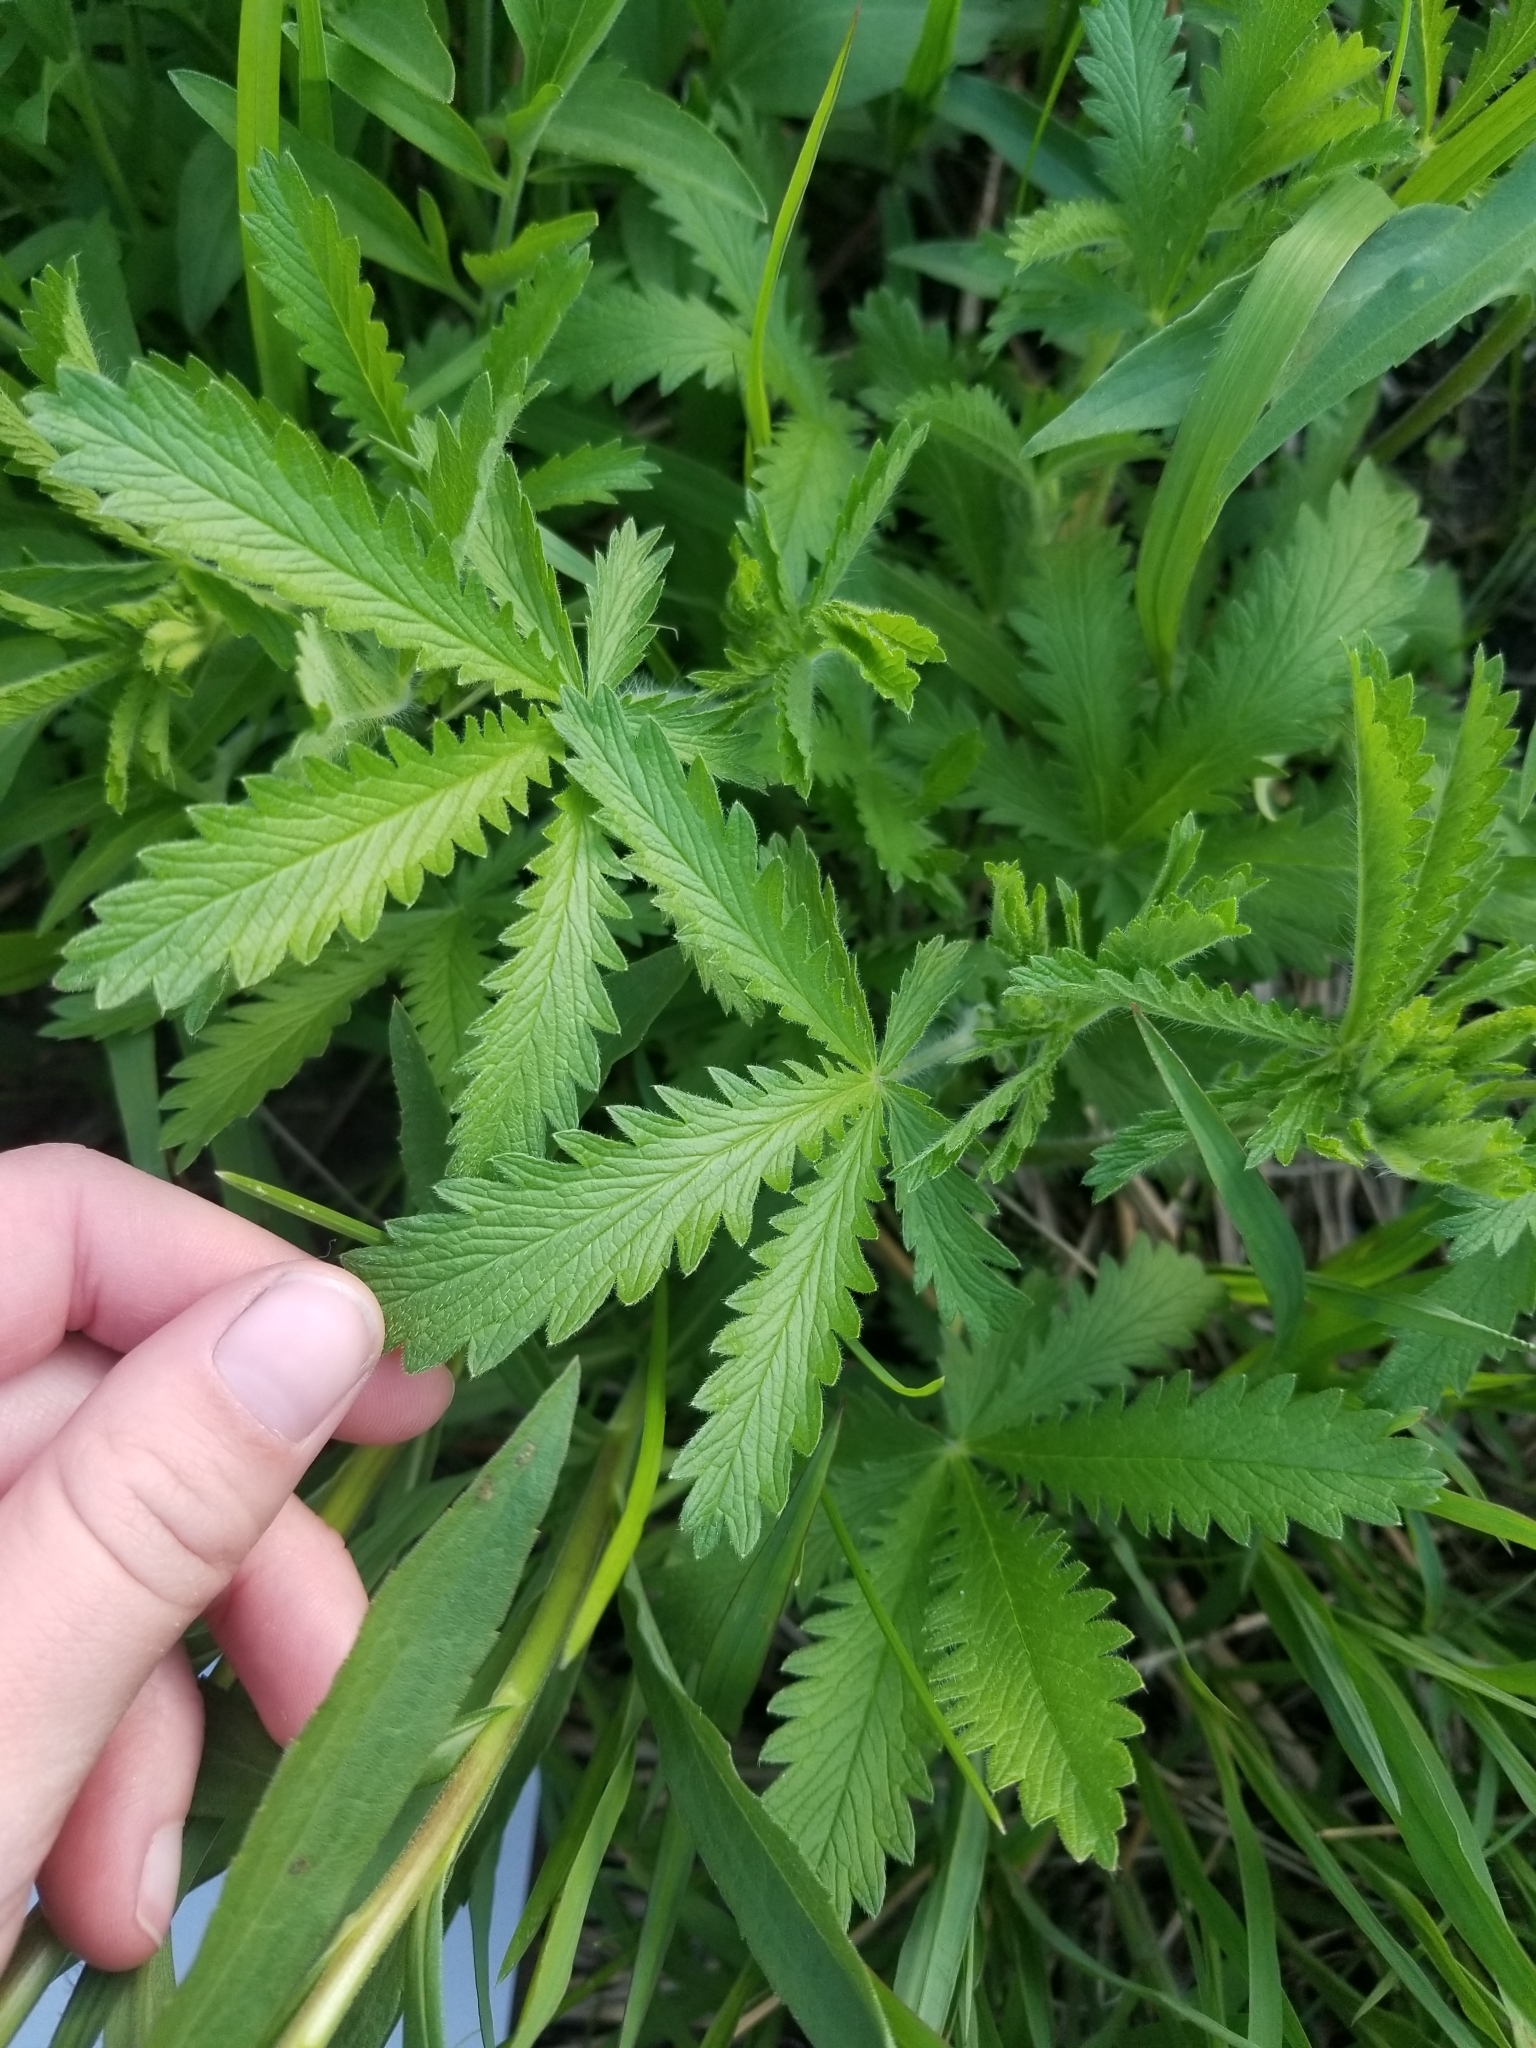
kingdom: Plantae
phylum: Tracheophyta
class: Magnoliopsida
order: Rosales
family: Rosaceae
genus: Potentilla
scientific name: Potentilla recta
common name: Sulphur cinquefoil
